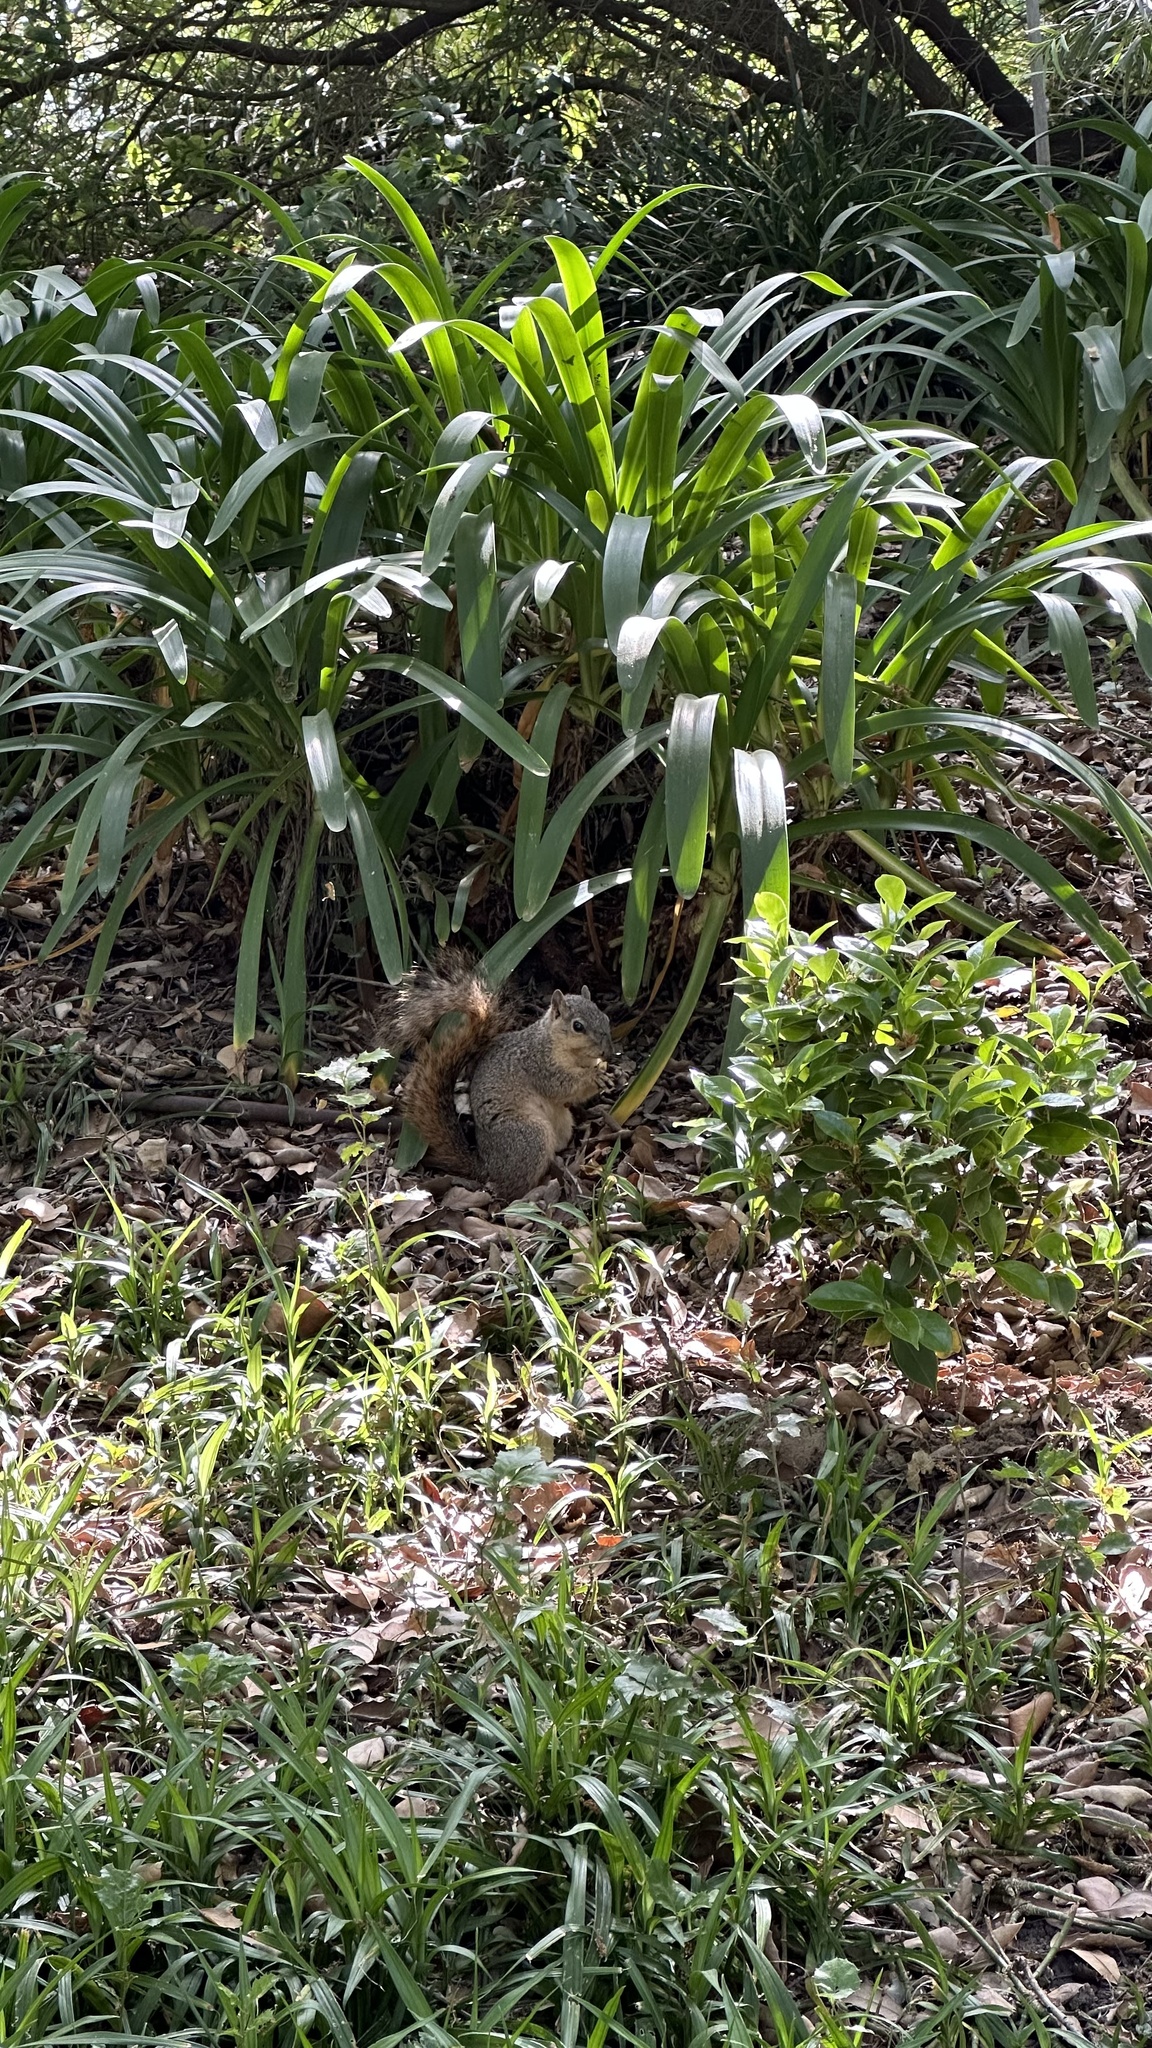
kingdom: Animalia
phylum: Chordata
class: Mammalia
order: Rodentia
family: Sciuridae
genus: Sciurus
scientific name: Sciurus niger
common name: Fox squirrel
